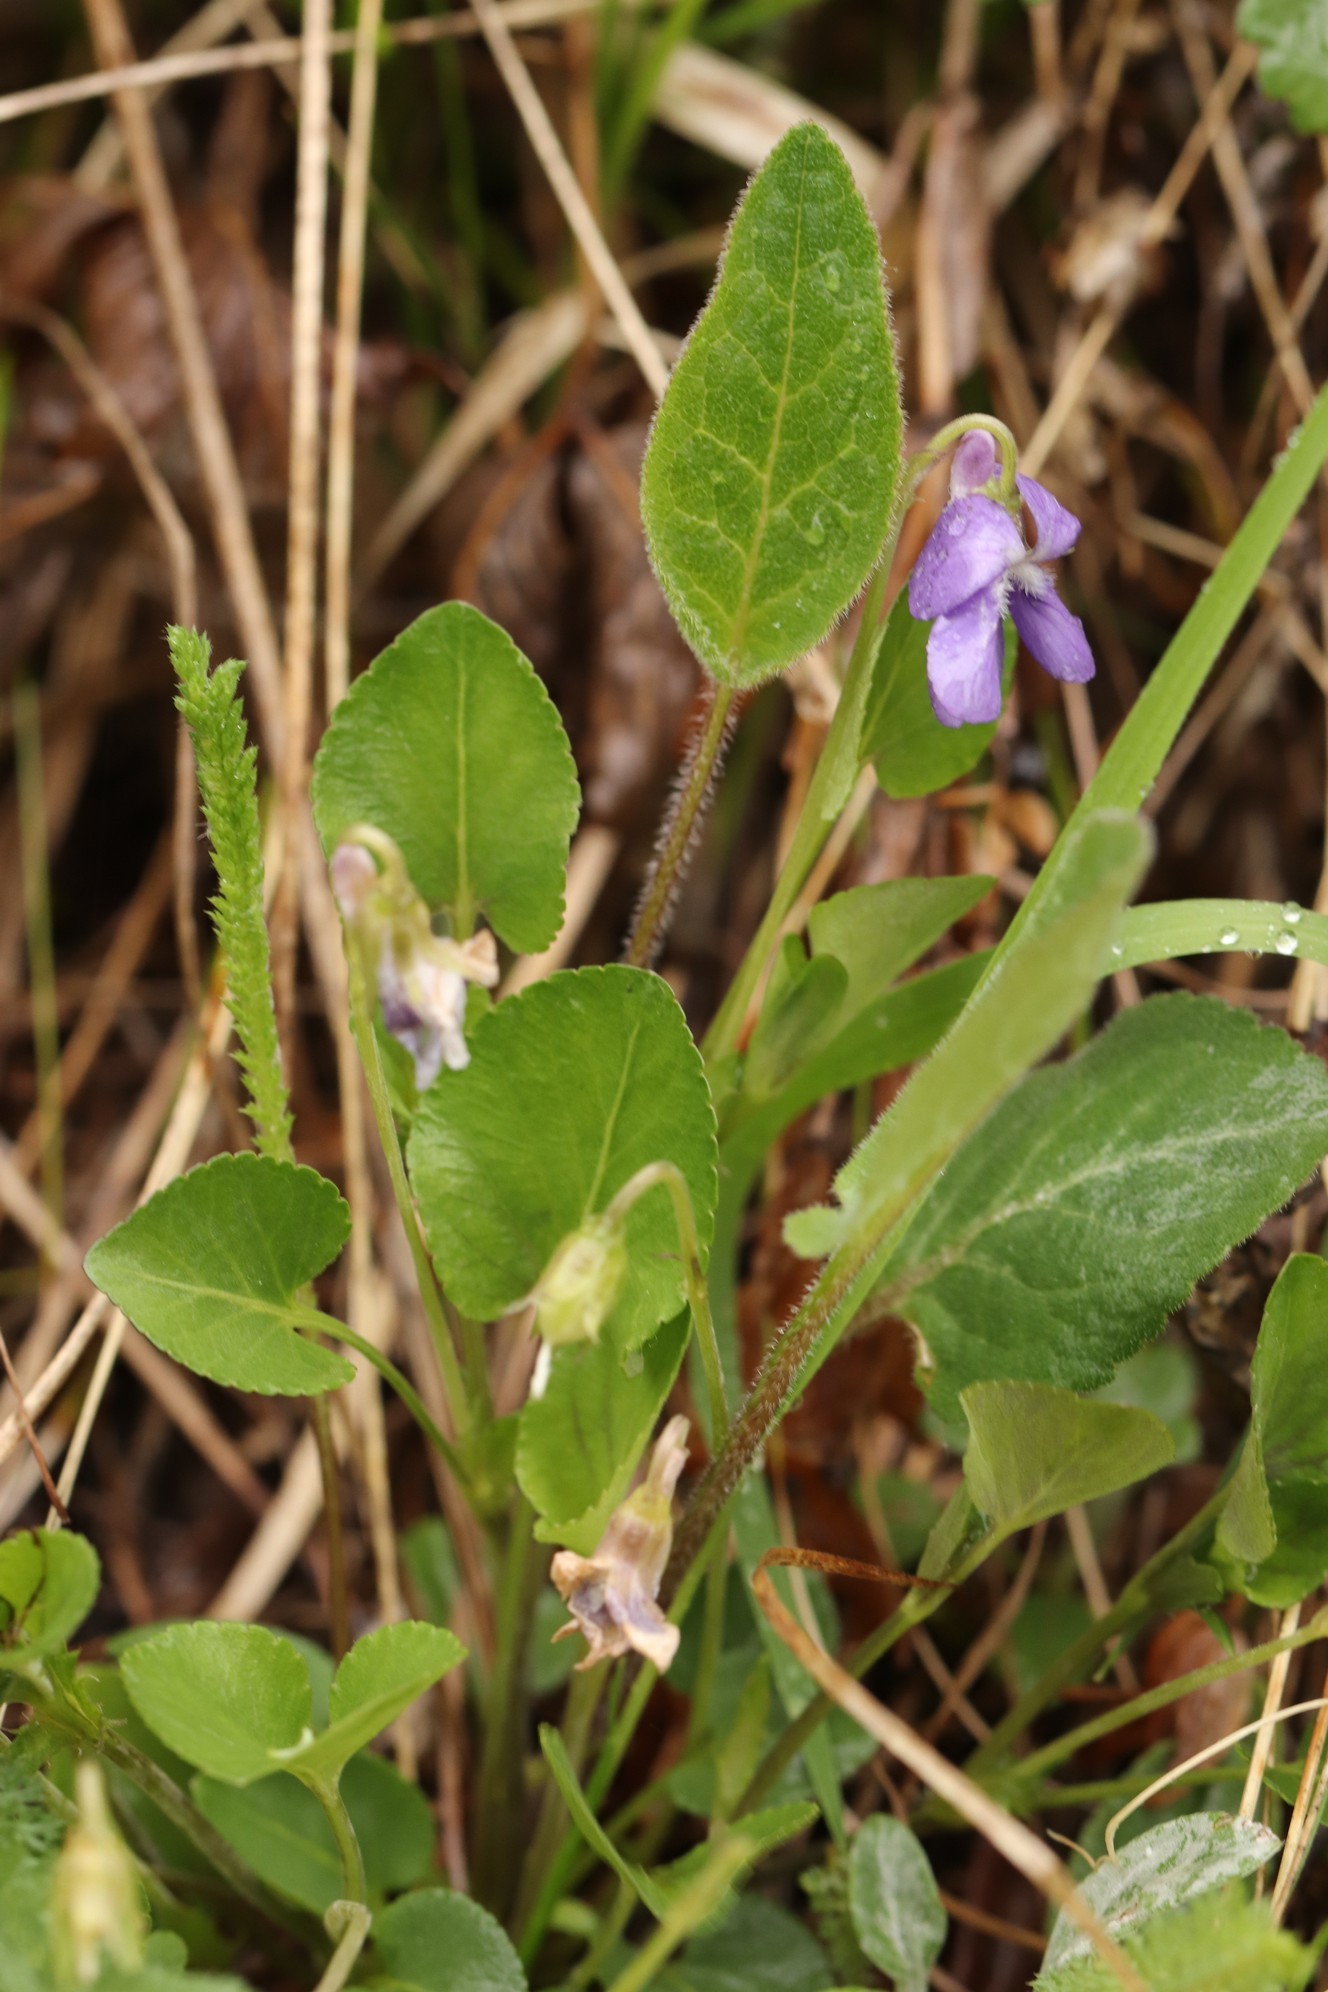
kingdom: Plantae
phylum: Tracheophyta
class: Magnoliopsida
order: Malpighiales
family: Violaceae
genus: Viola
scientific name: Viola rupestris
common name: Teesdale violet
